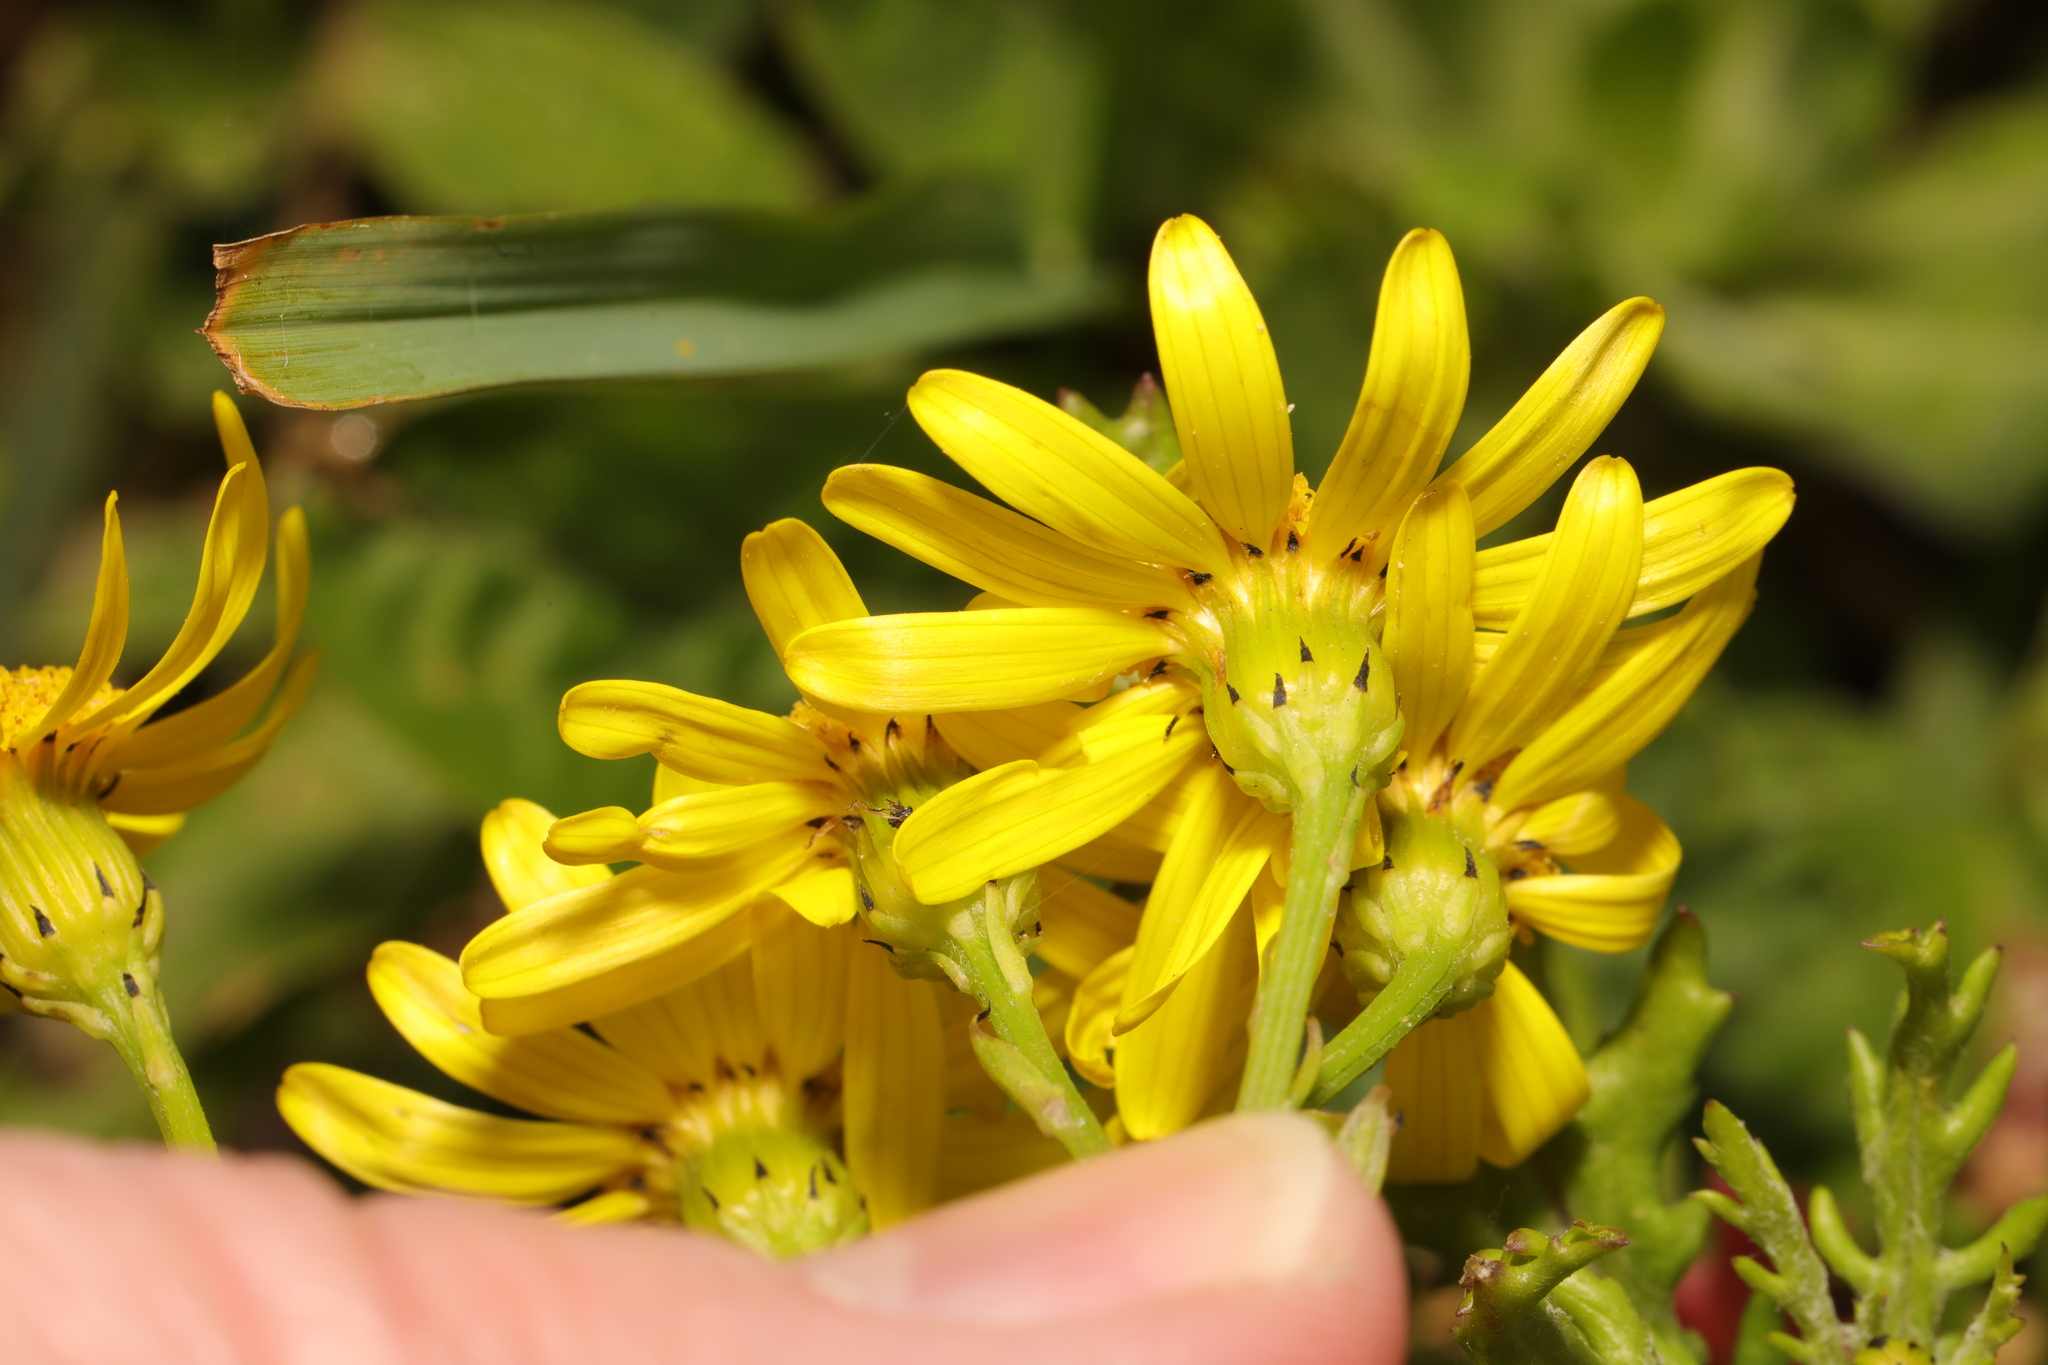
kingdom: Plantae
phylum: Tracheophyta
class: Magnoliopsida
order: Asterales
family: Asteraceae
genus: Senecio
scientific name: Senecio squalidus
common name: Oxford ragwort
